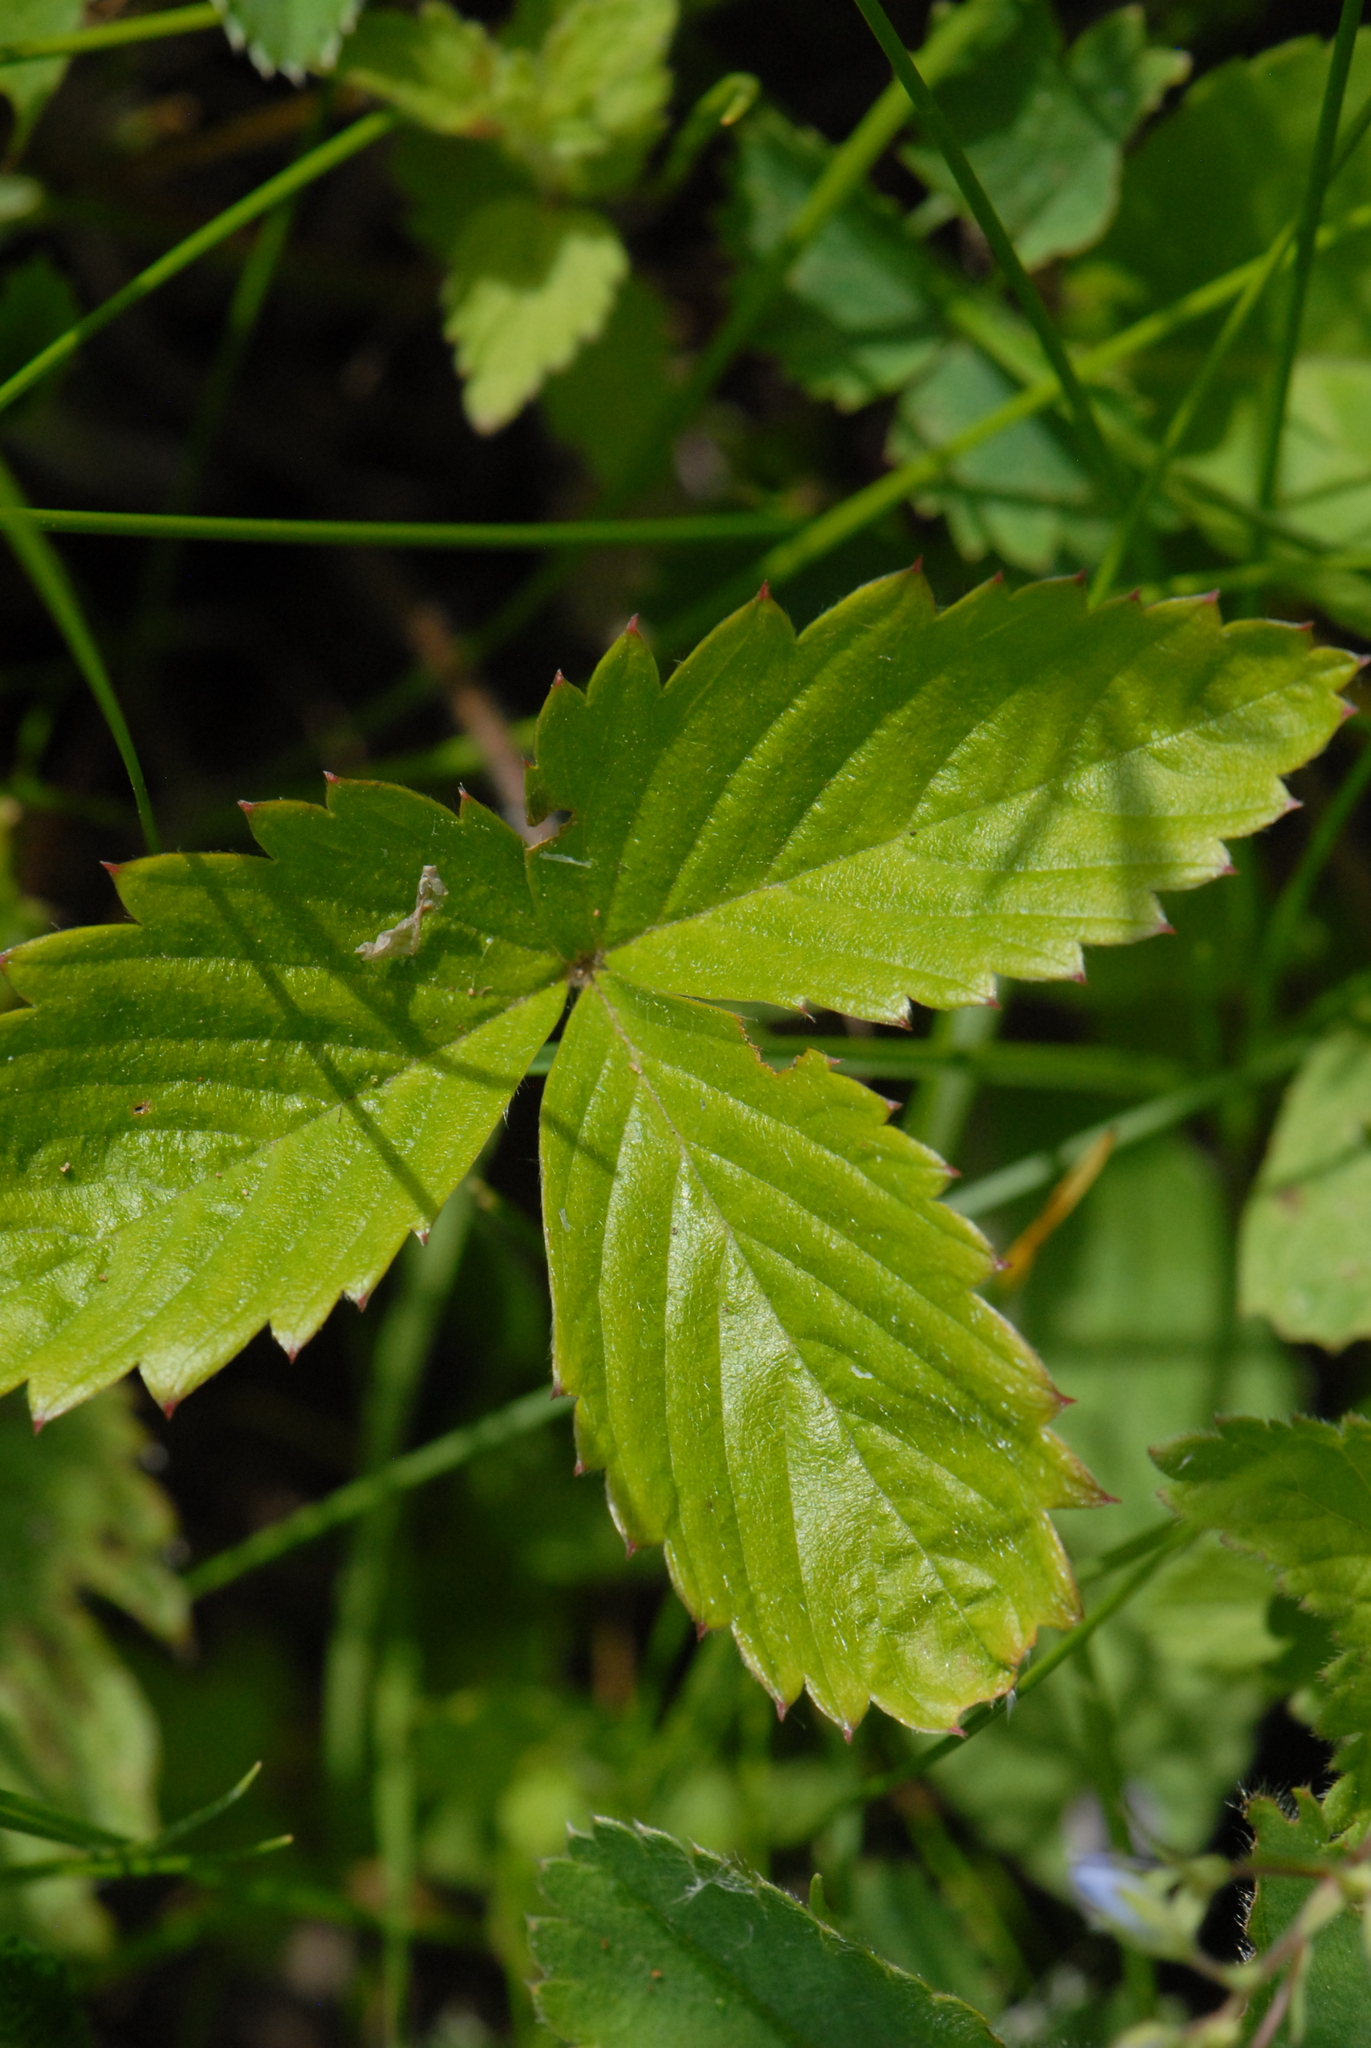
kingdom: Plantae
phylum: Tracheophyta
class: Magnoliopsida
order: Rosales
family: Rosaceae
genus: Fragaria
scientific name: Fragaria vesca
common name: Wild strawberry
